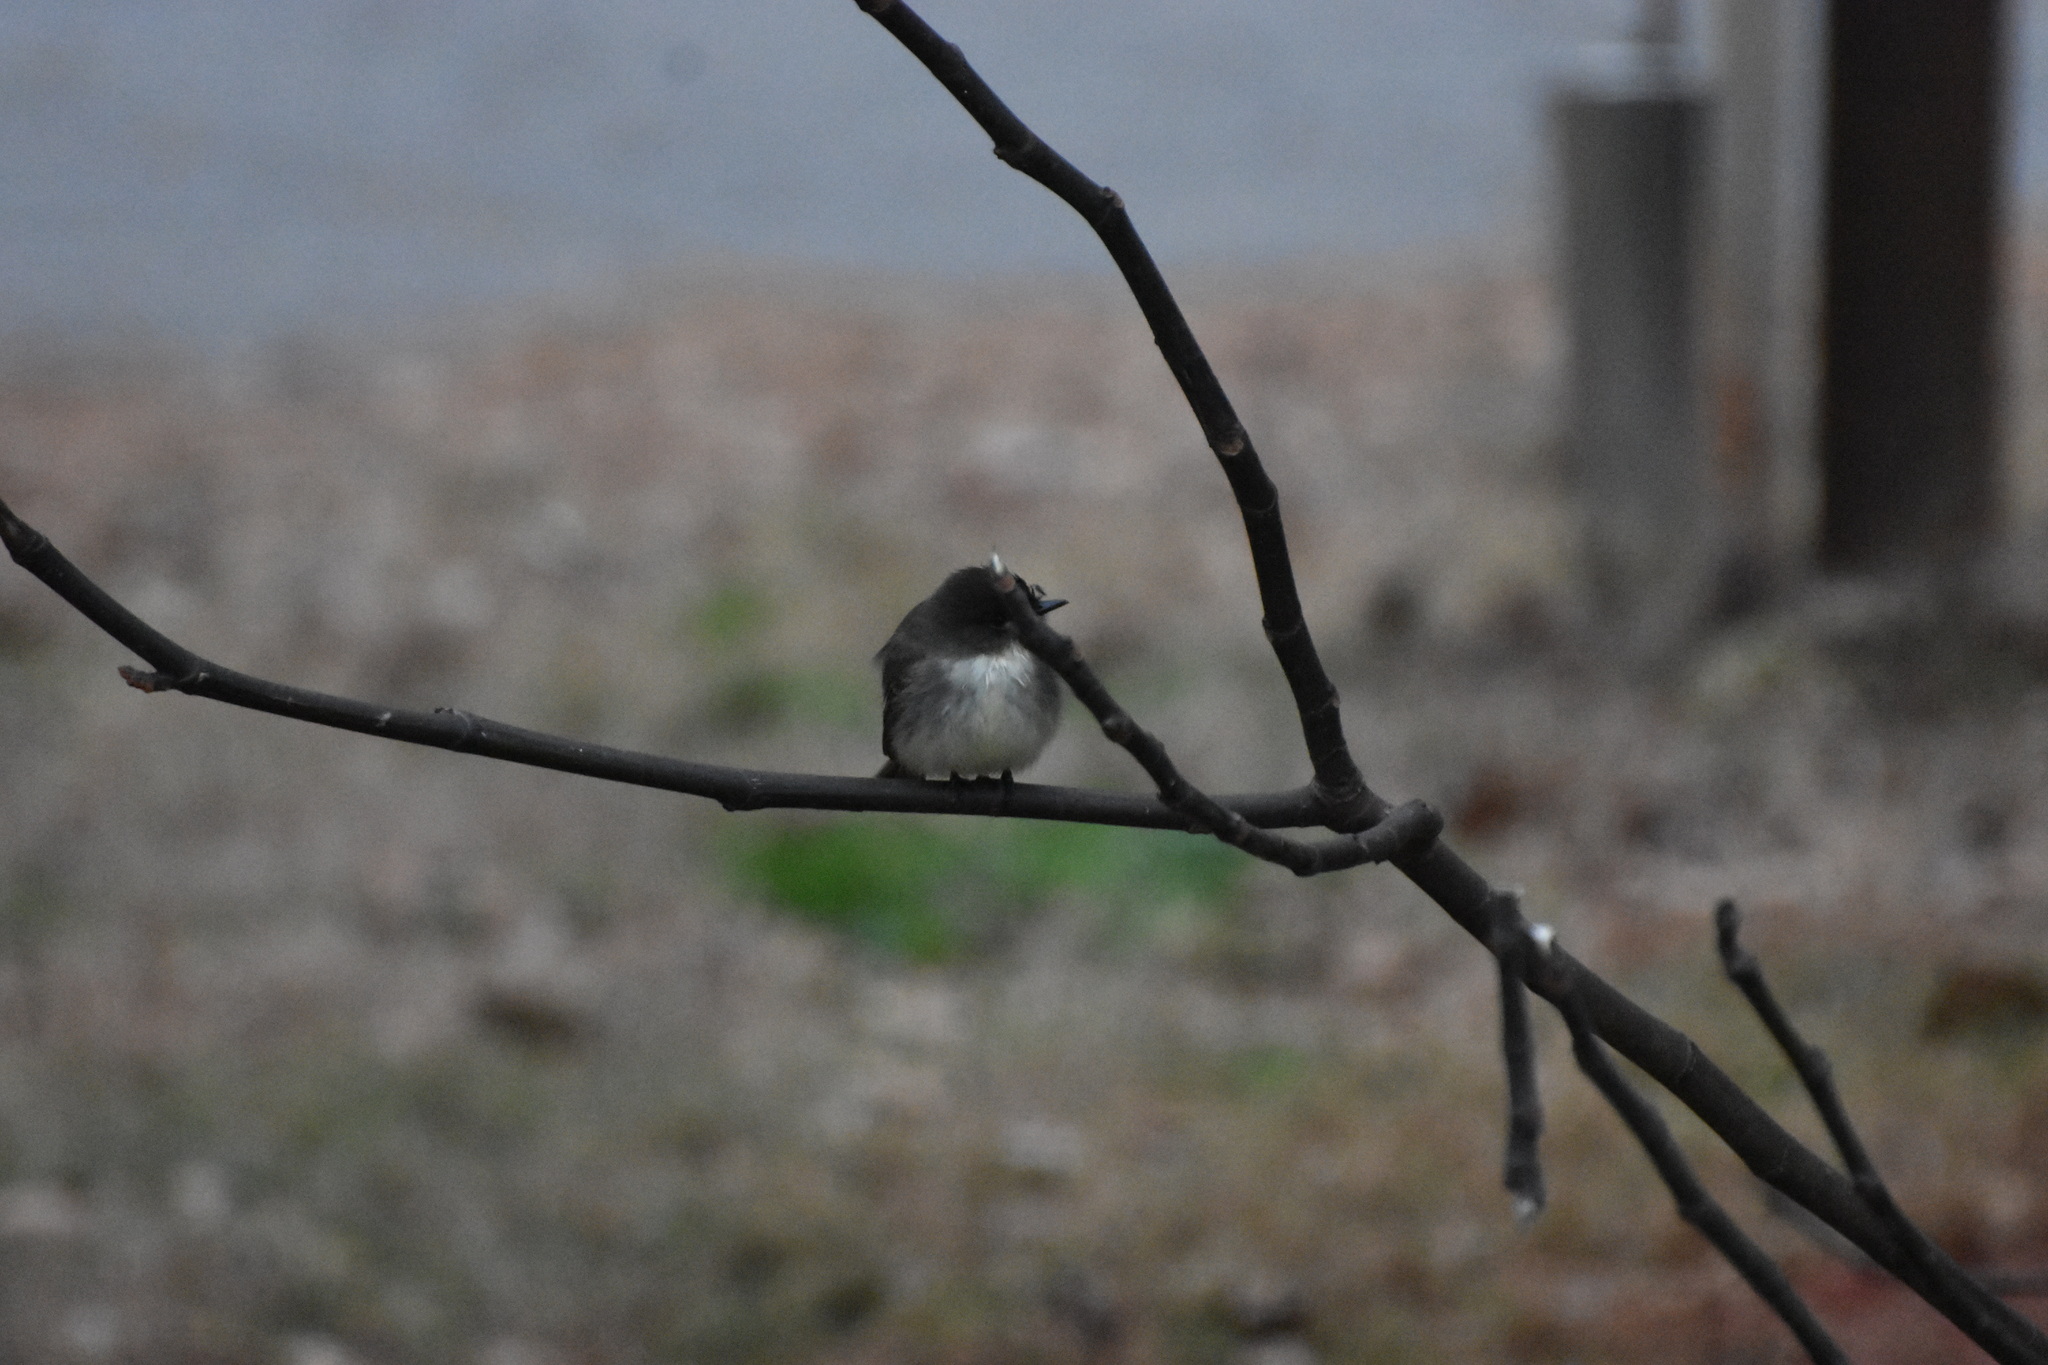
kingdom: Animalia
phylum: Chordata
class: Aves
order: Passeriformes
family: Tyrannidae
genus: Sayornis
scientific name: Sayornis phoebe
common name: Eastern phoebe
